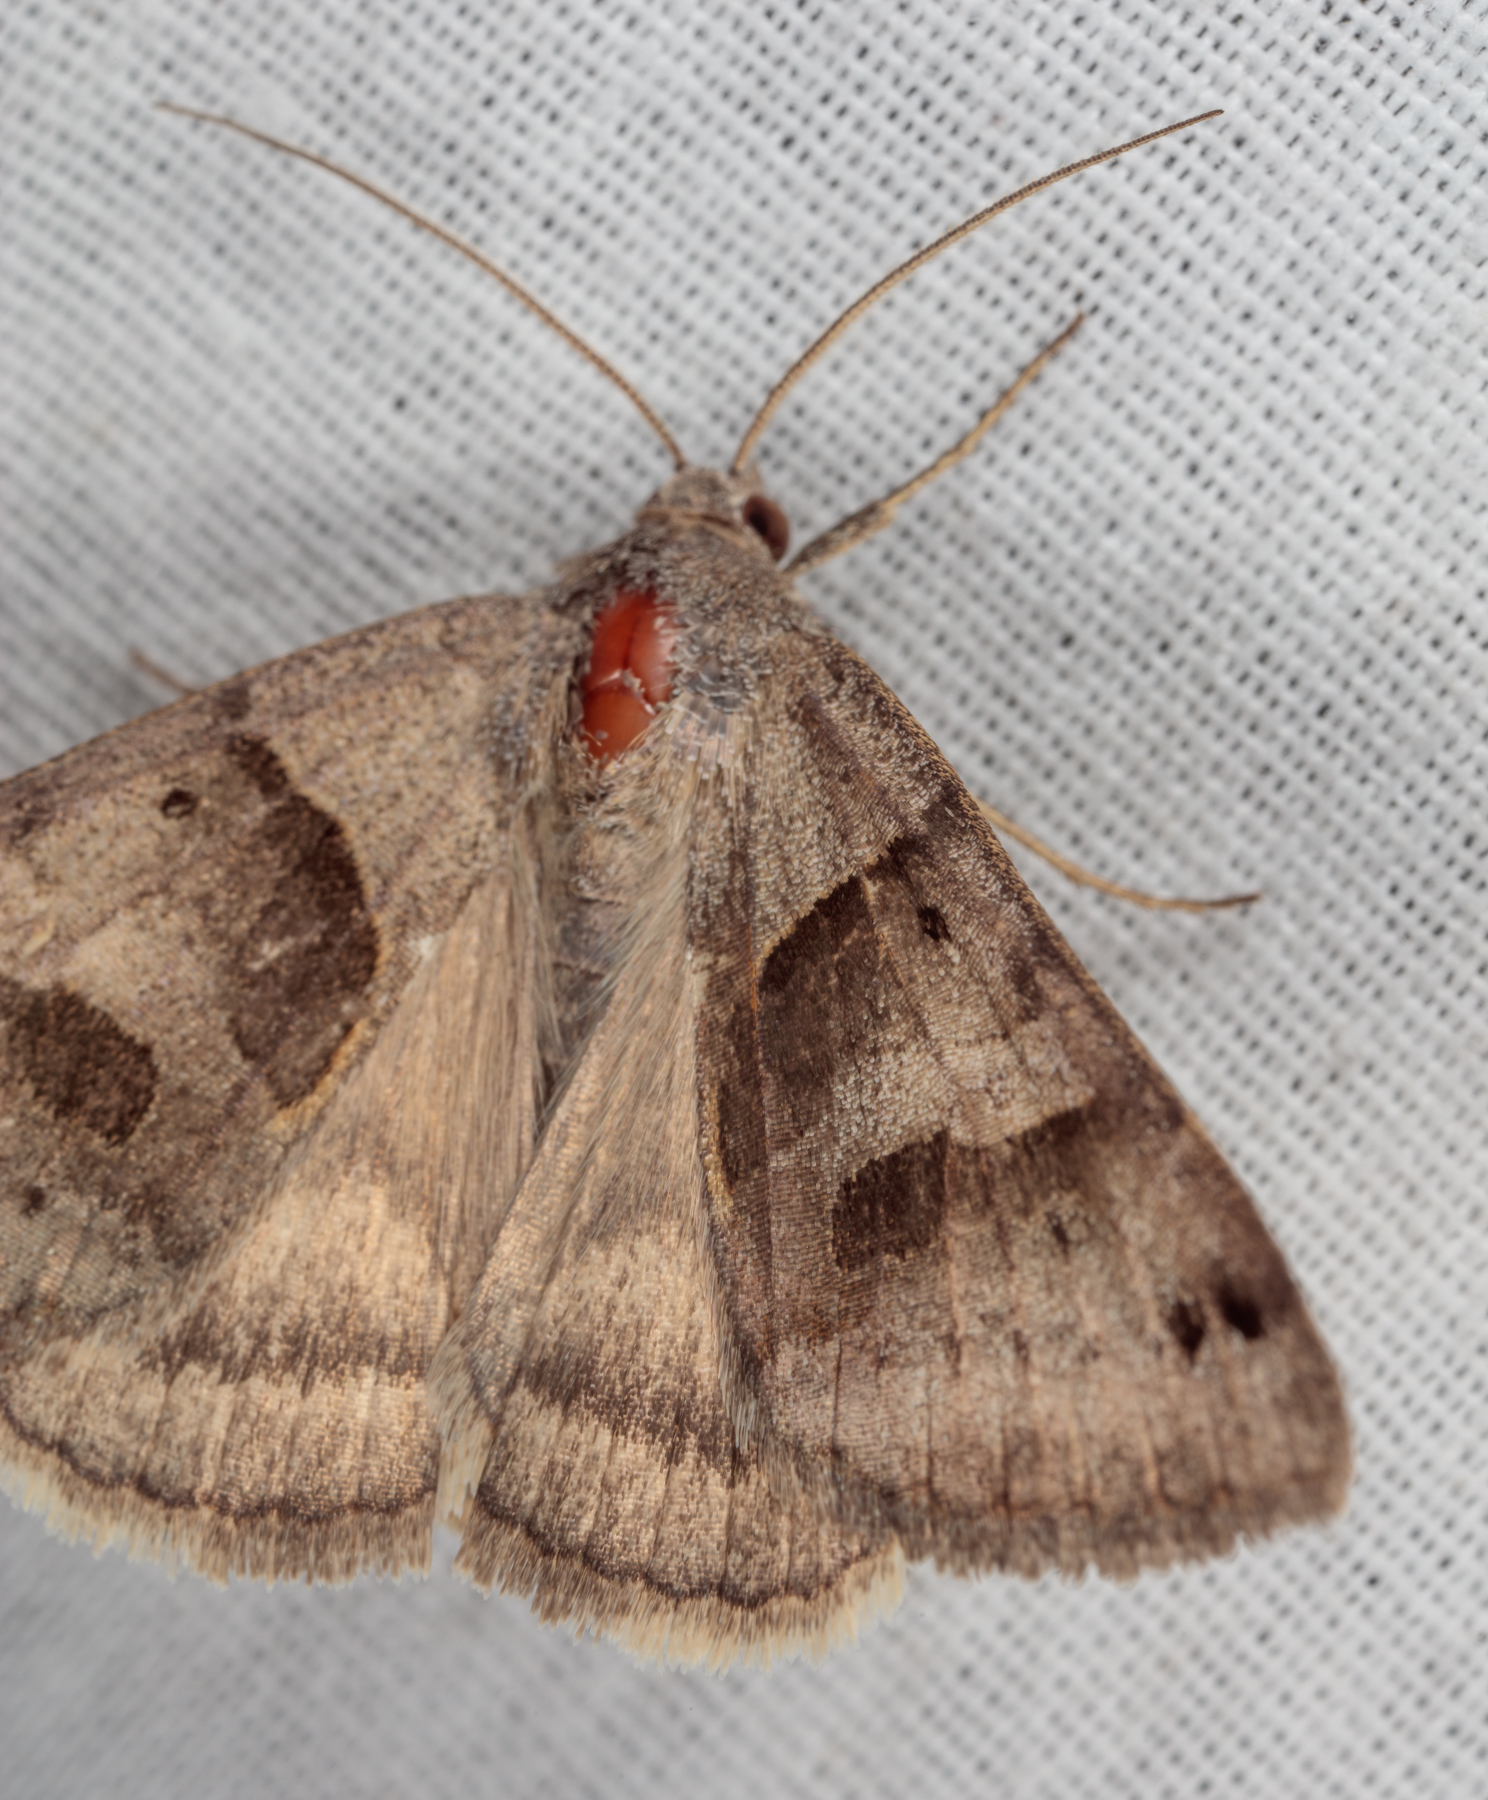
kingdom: Animalia
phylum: Arthropoda
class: Insecta
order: Lepidoptera
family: Erebidae
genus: Caenurgina
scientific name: Caenurgina erechtea
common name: Forage looper moth
